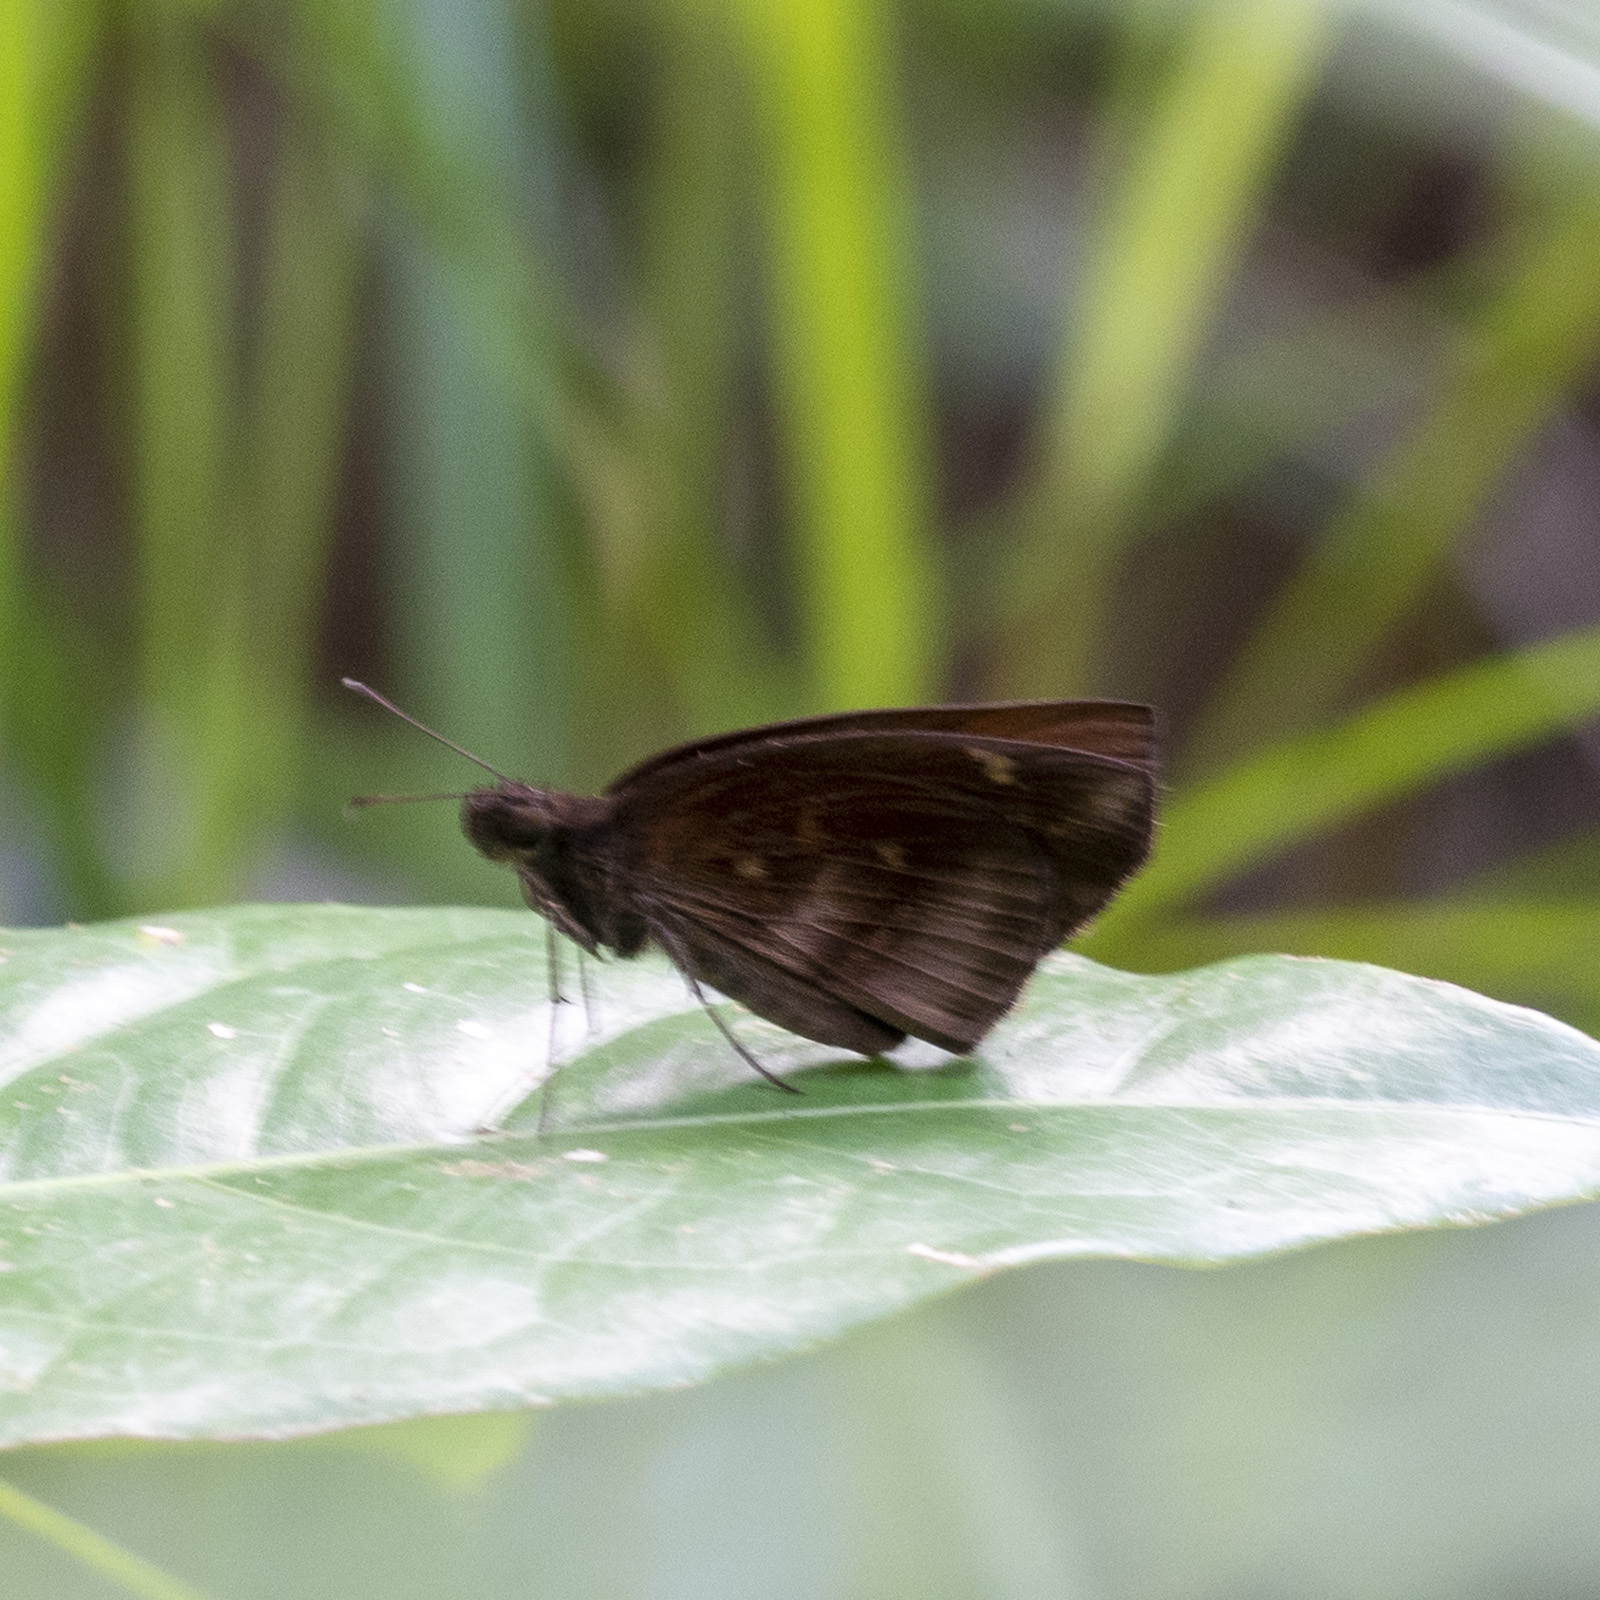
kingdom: Animalia
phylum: Arthropoda
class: Insecta
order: Lepidoptera
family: Hesperiidae
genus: Psolos
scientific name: Psolos fuligo
